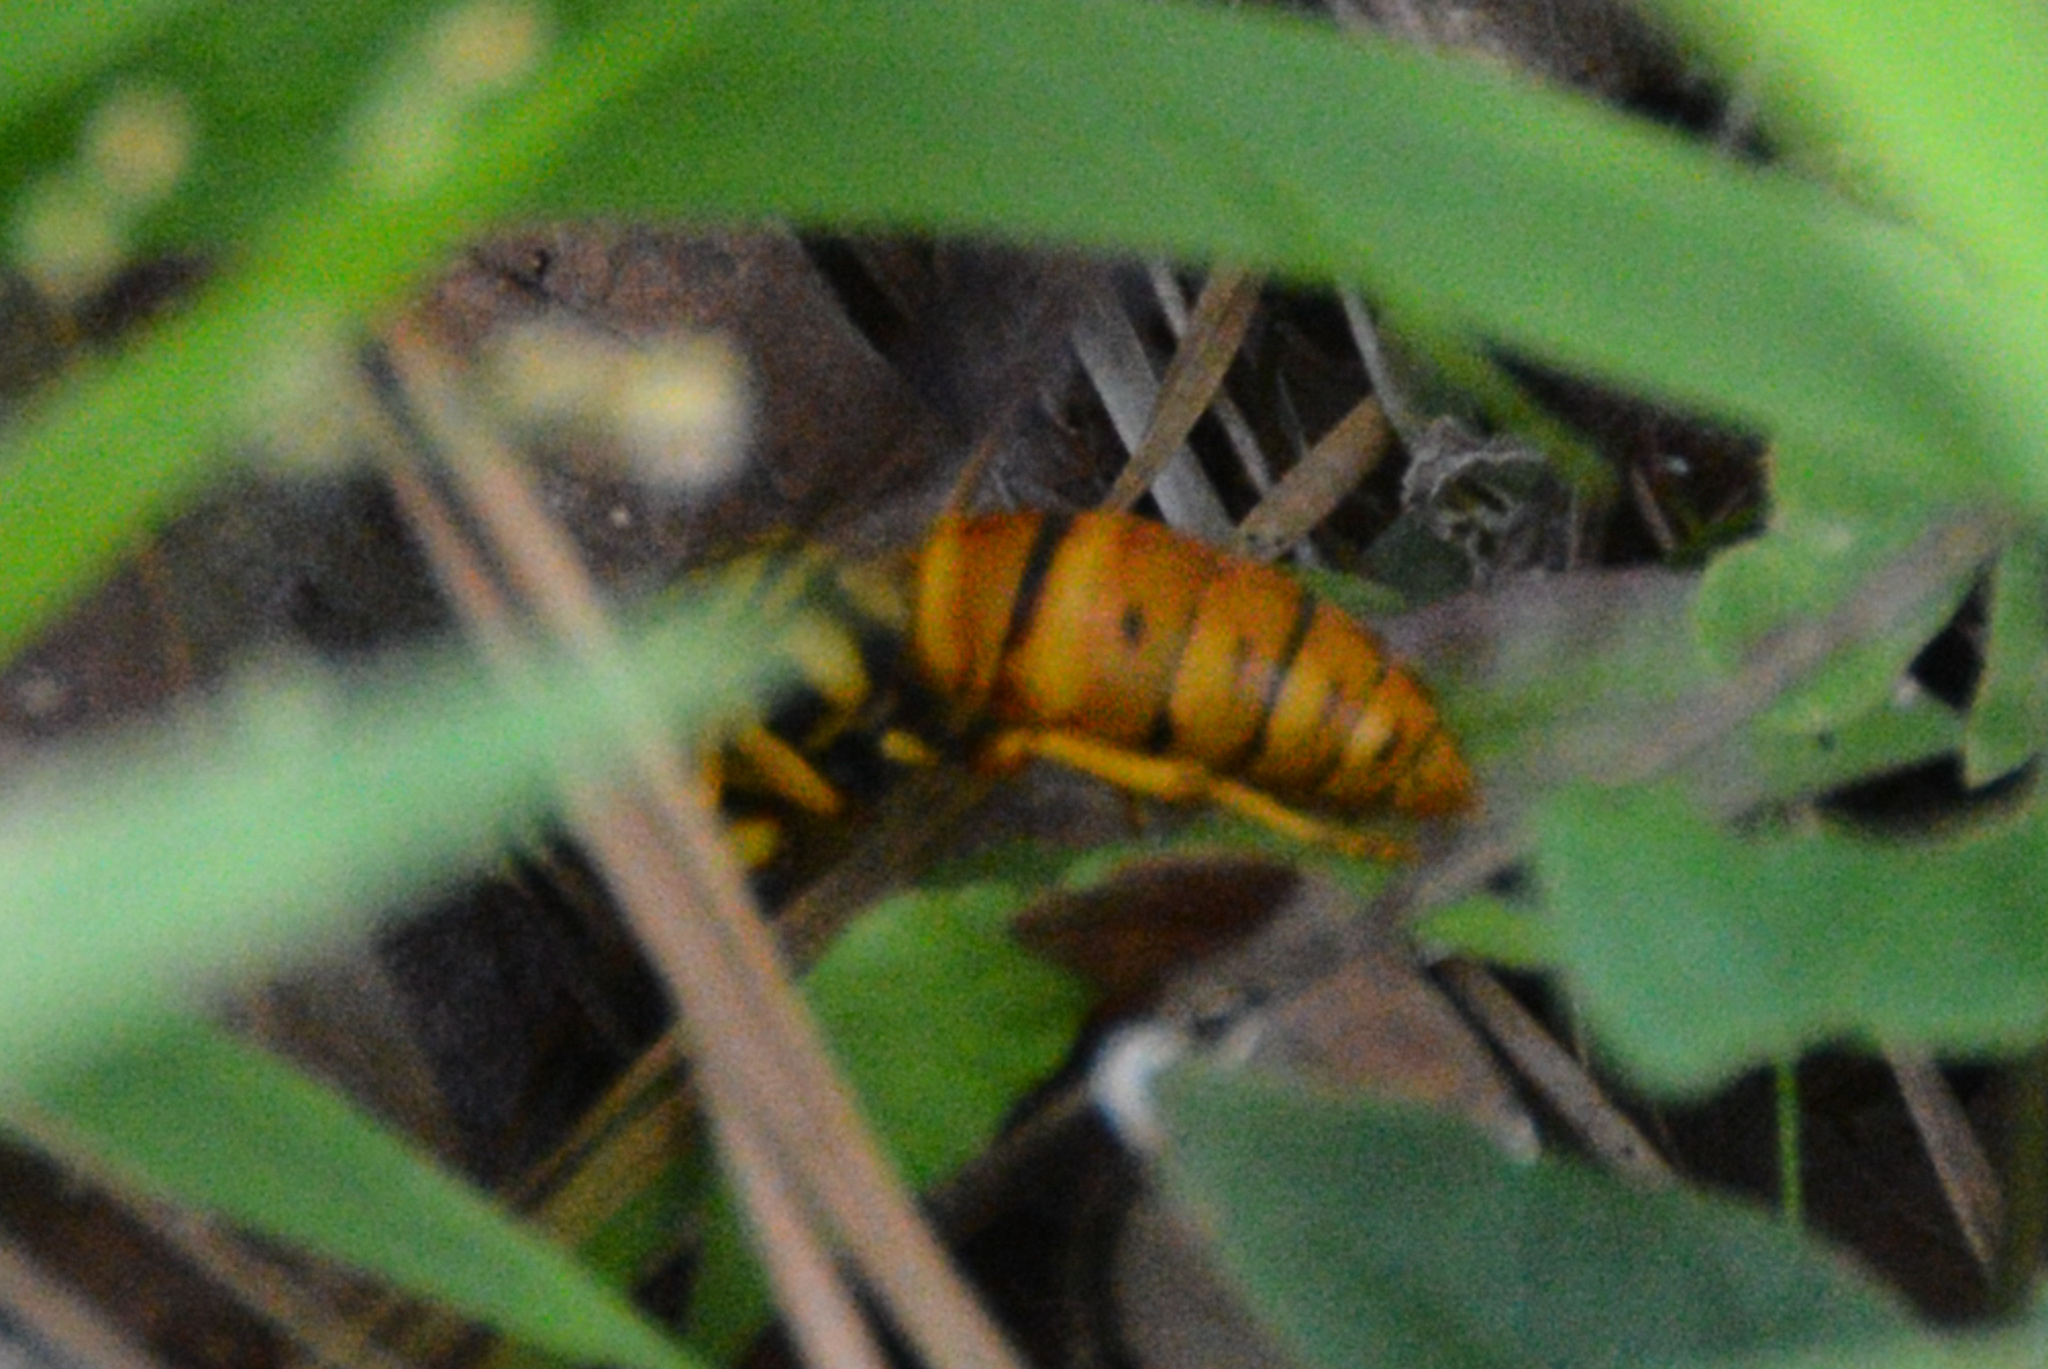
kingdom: Animalia
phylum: Arthropoda
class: Insecta
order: Hymenoptera
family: Vespidae
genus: Vespula
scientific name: Vespula squamosa
